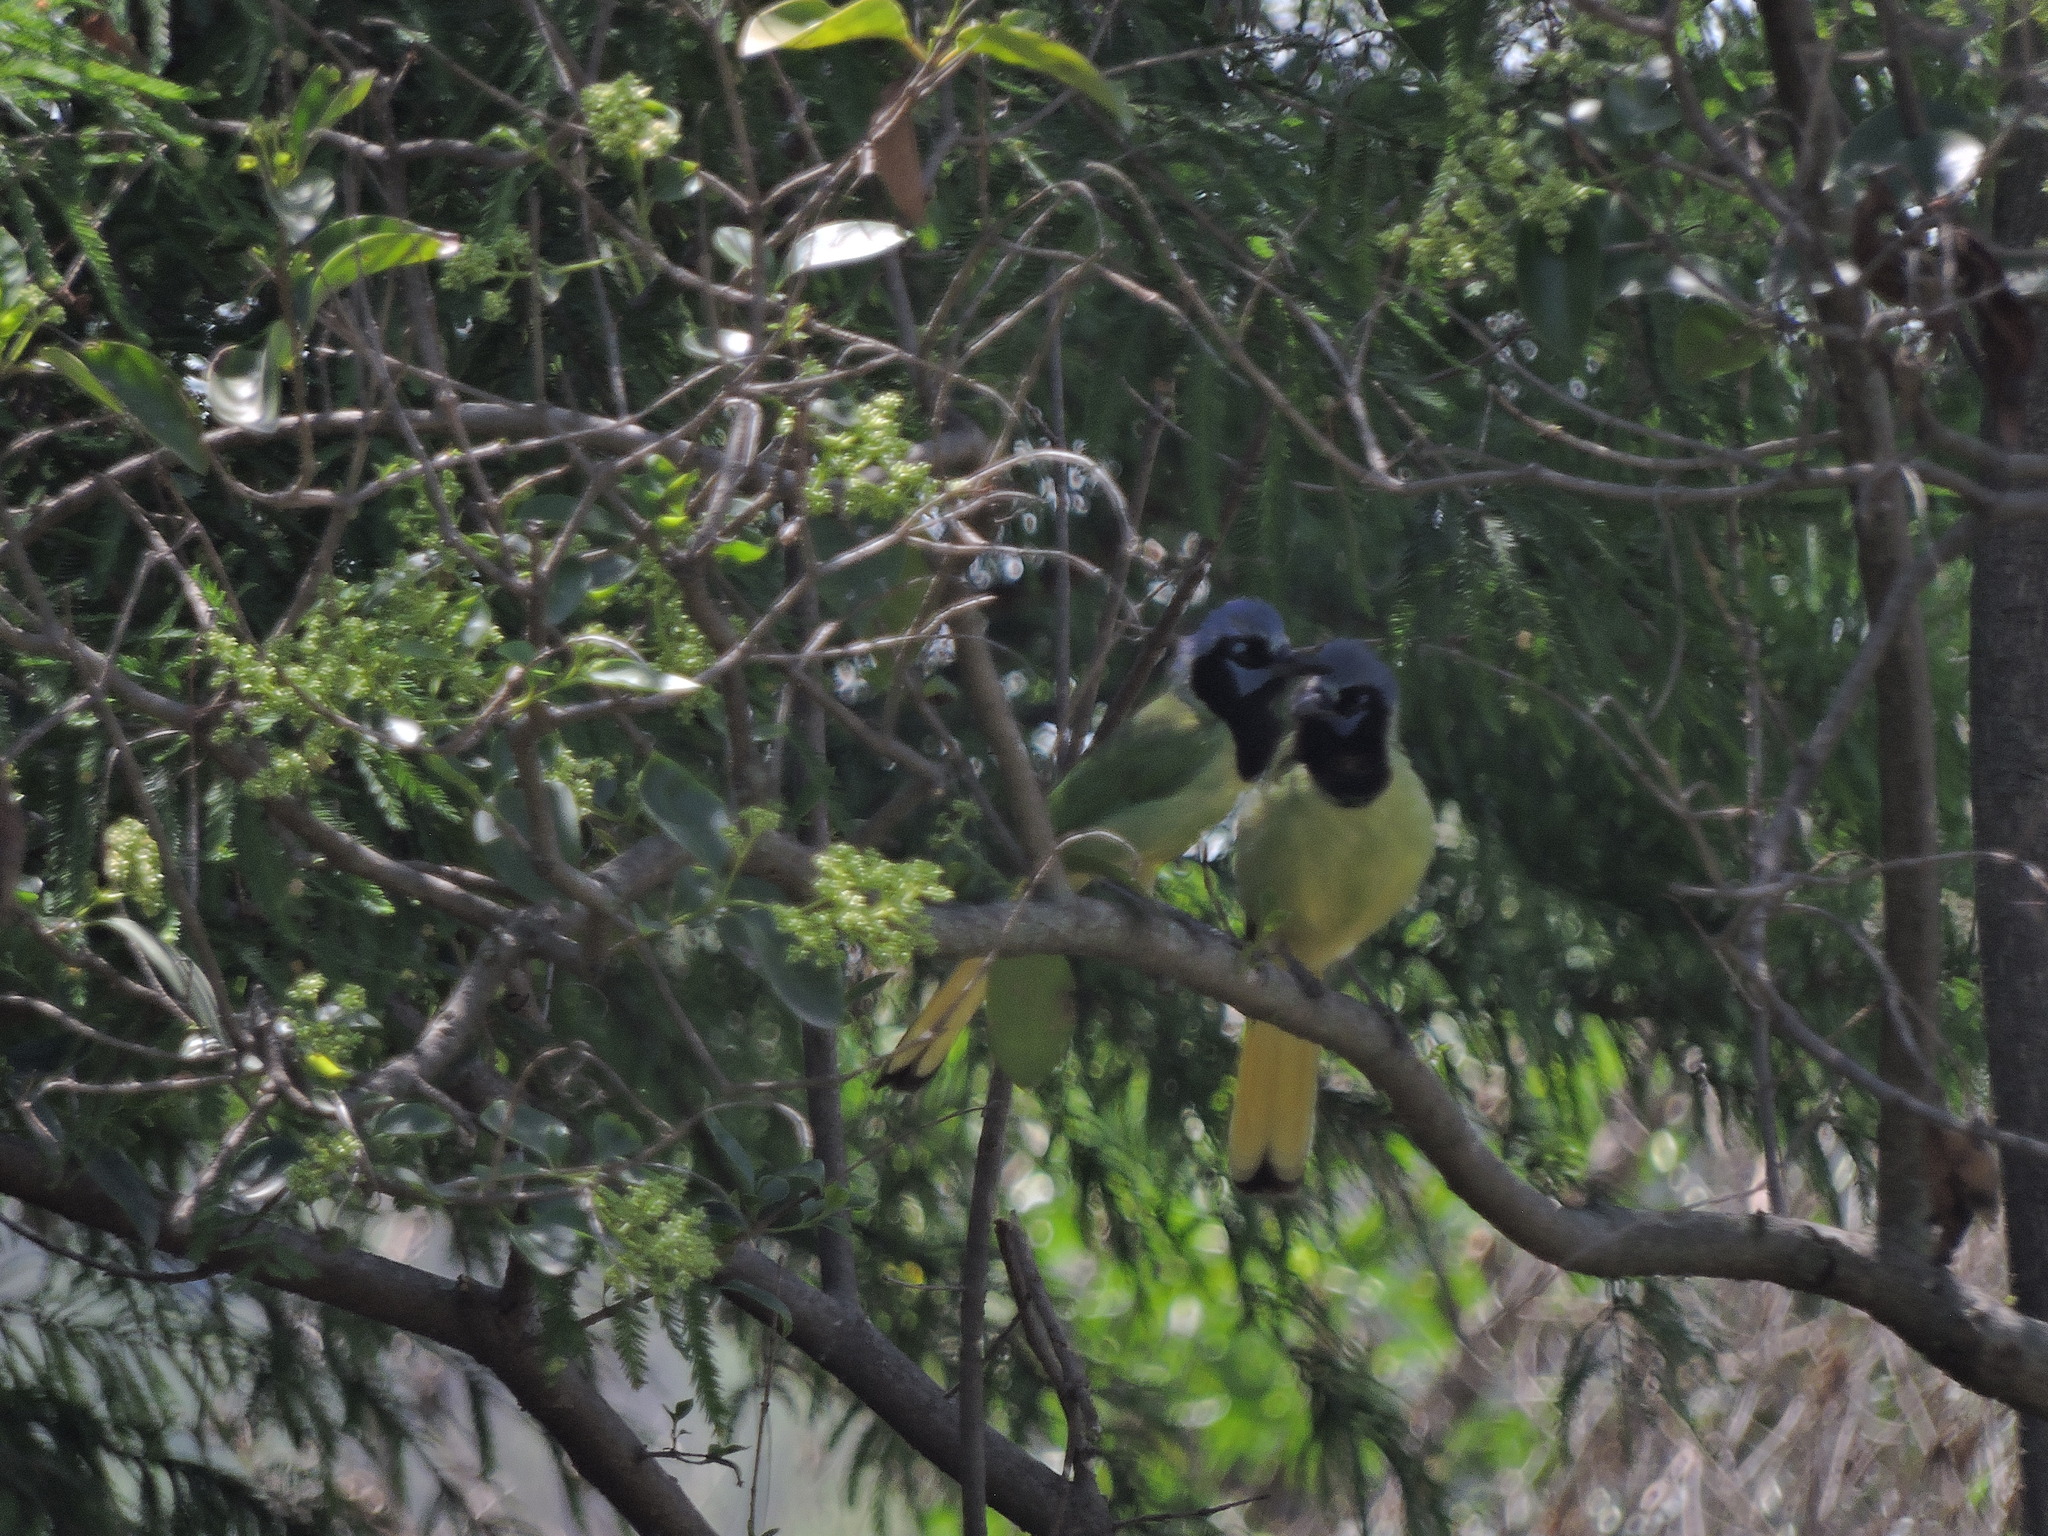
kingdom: Animalia
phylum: Chordata
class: Aves
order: Passeriformes
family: Corvidae
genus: Cyanocorax
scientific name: Cyanocorax yncas
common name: Green jay
